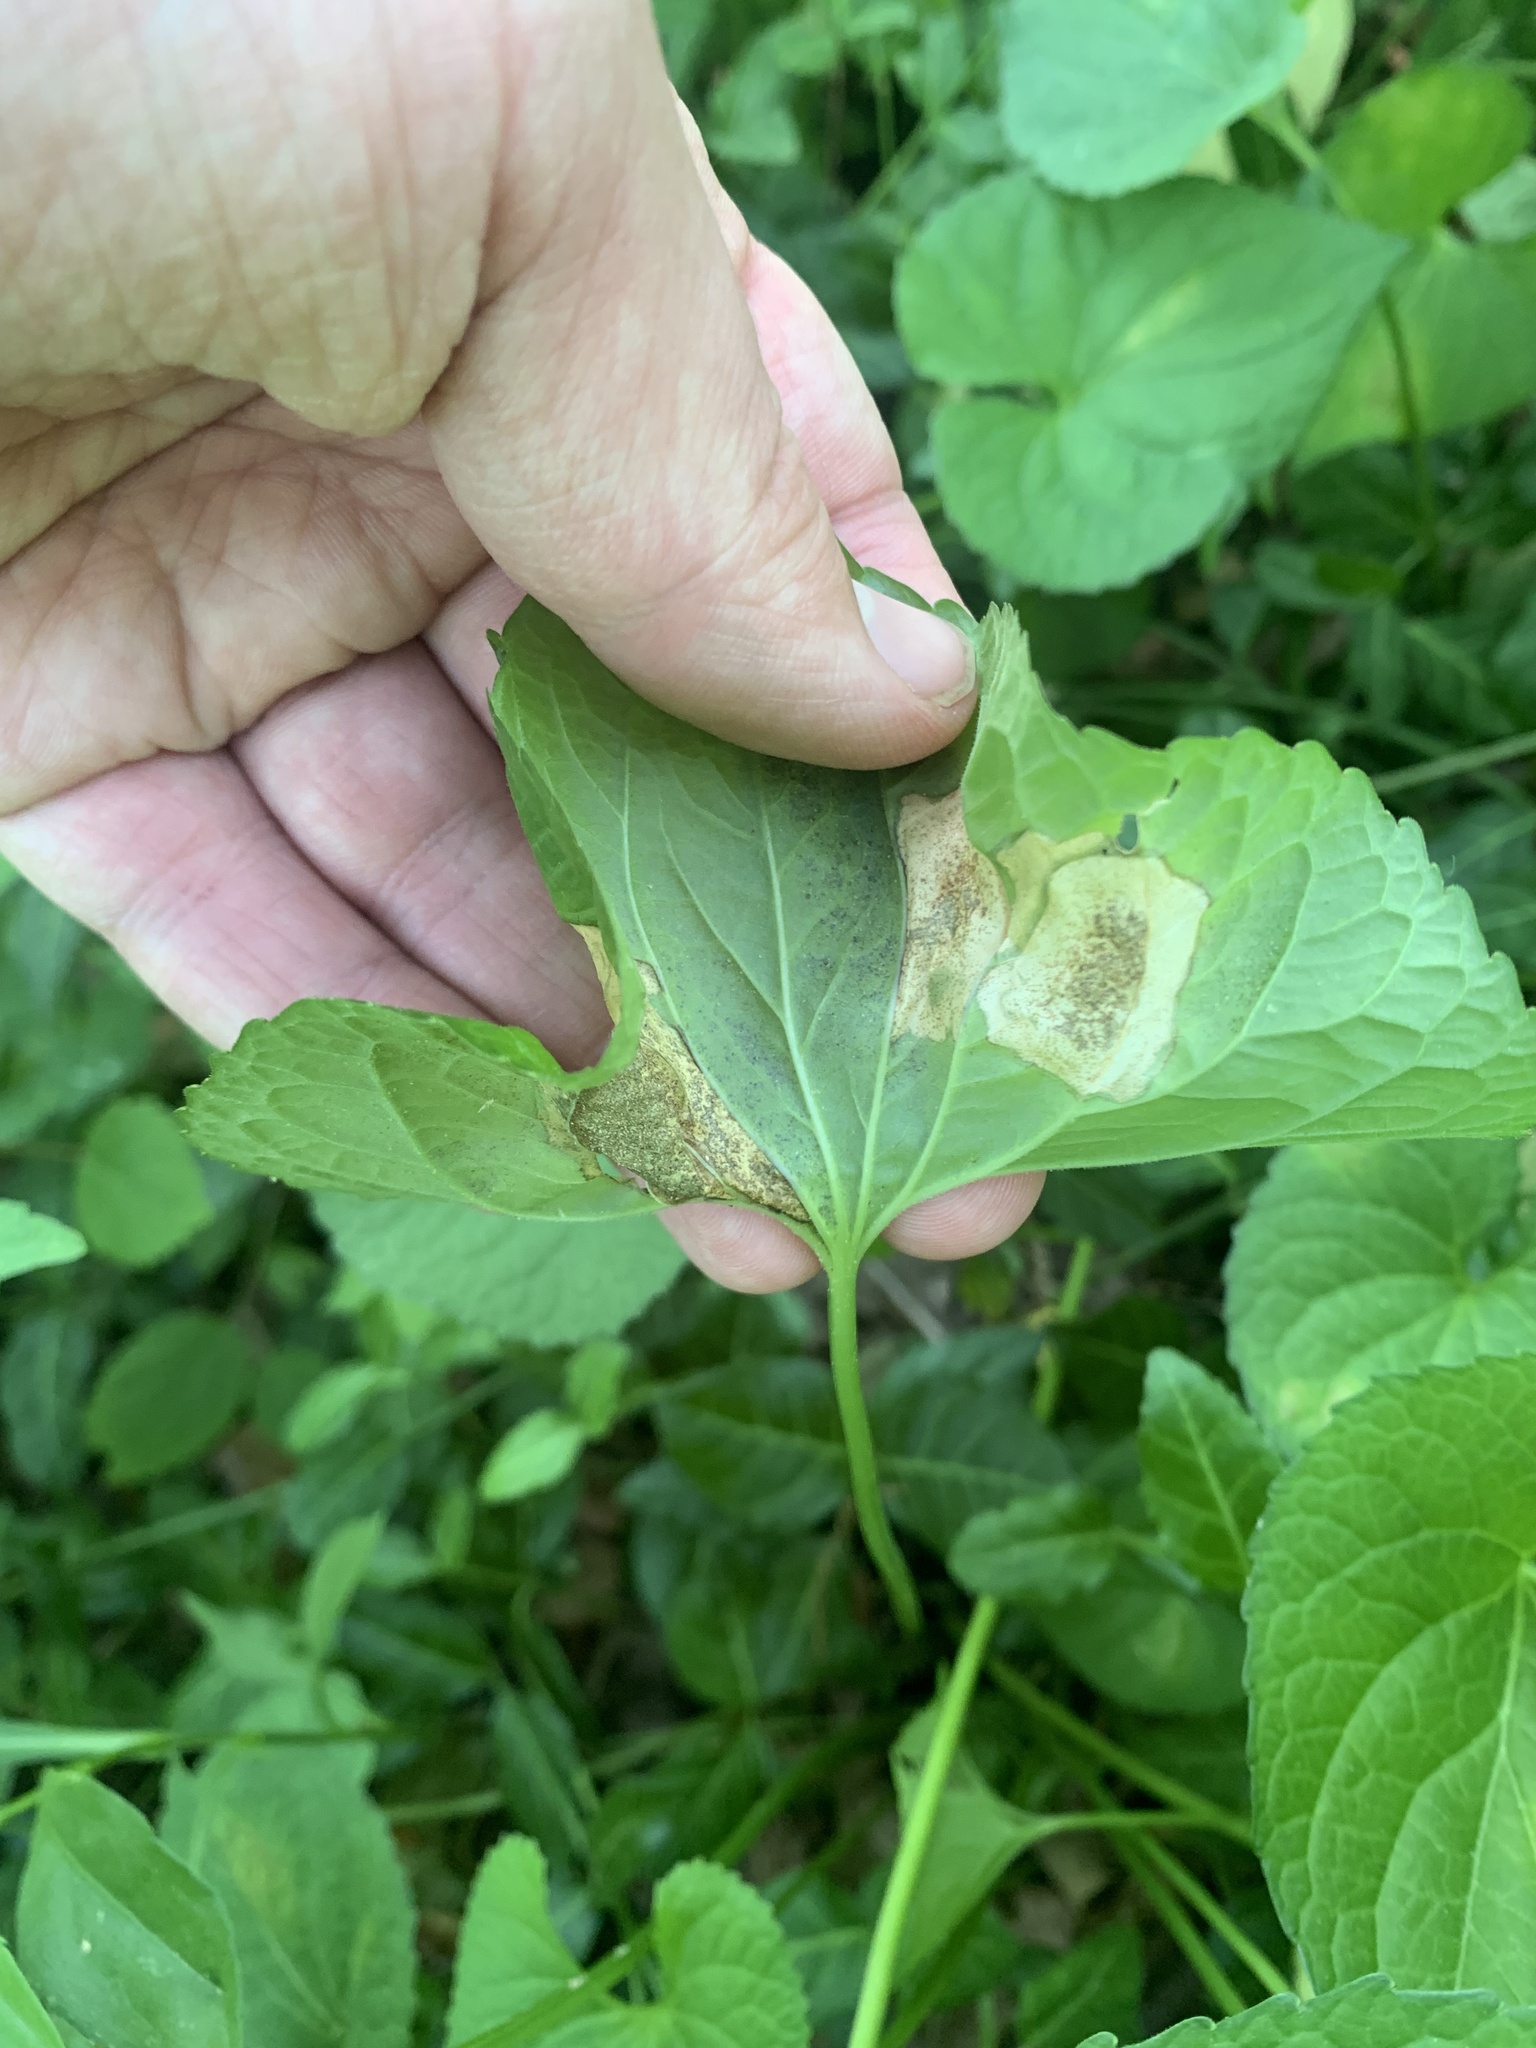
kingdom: Animalia
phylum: Arthropoda
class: Insecta
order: Diptera
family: Agromyzidae
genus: Liriomyza
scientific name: Liriomyza violivora
